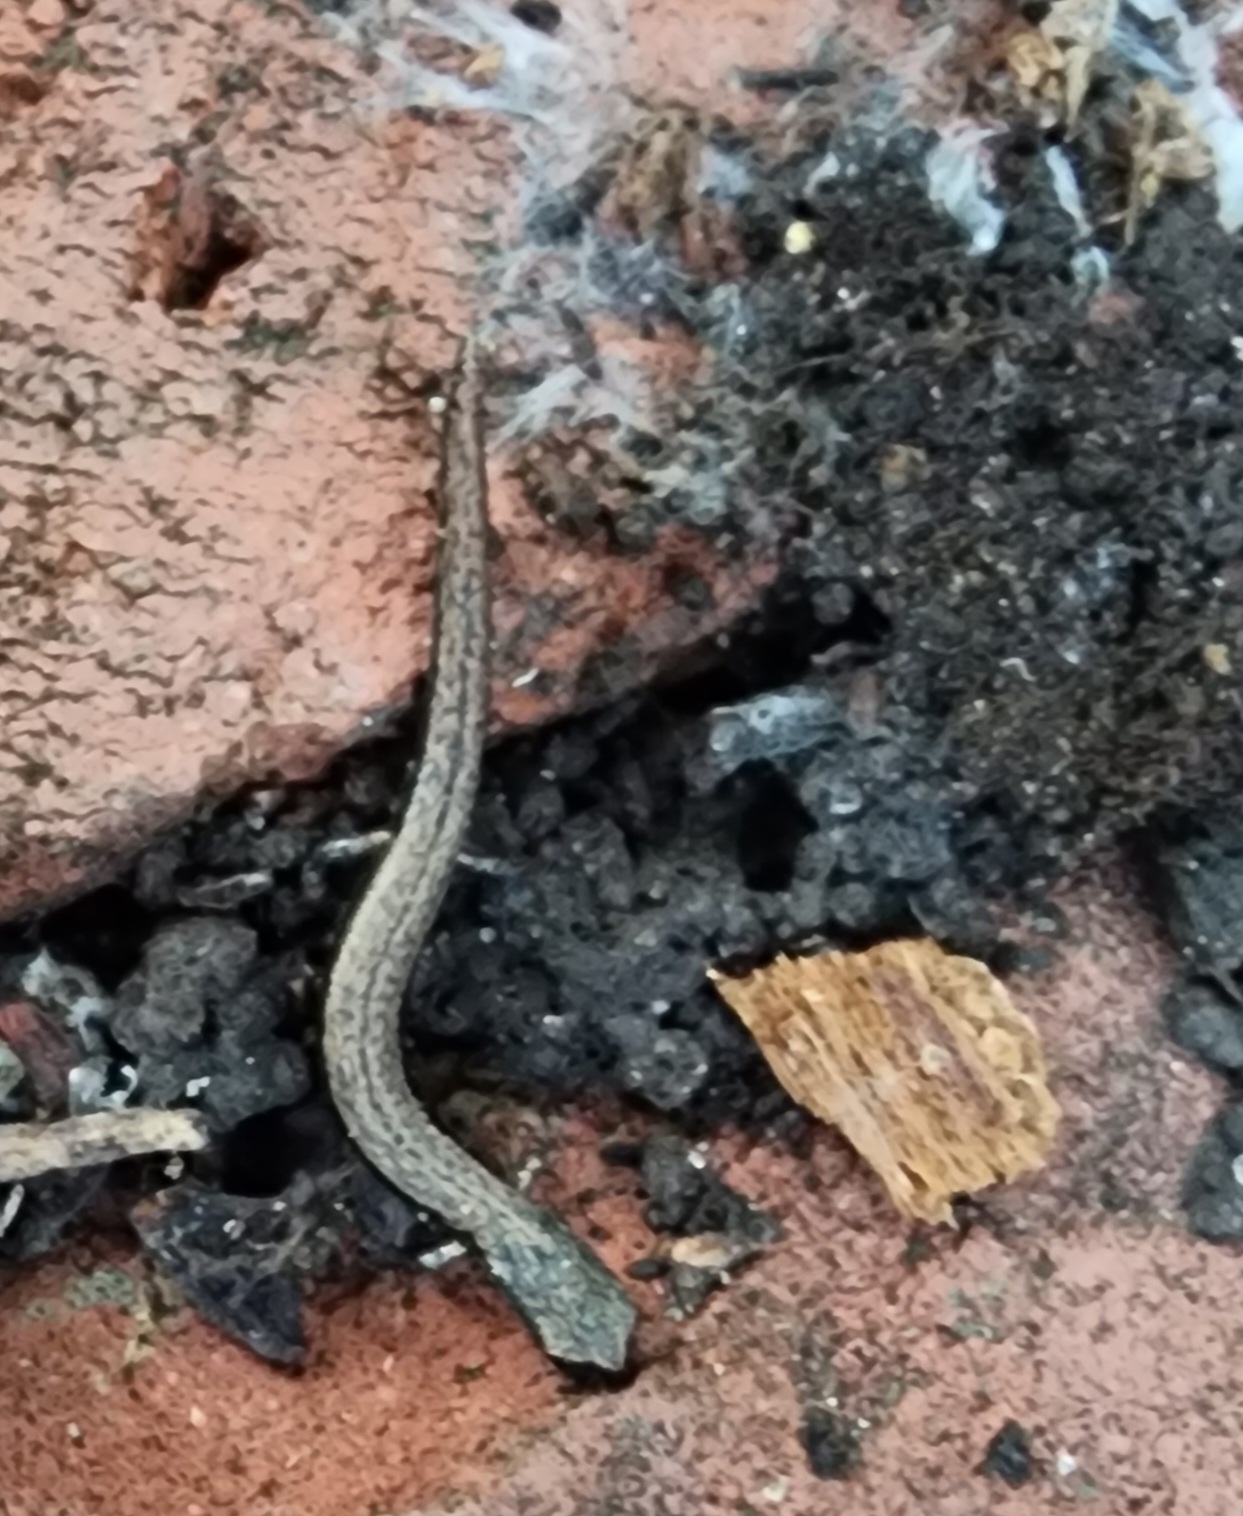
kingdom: Animalia
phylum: Chordata
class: Amphibia
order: Caudata
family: Plethodontidae
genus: Batrachoseps
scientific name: Batrachoseps attenuatus
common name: California slender salamander
